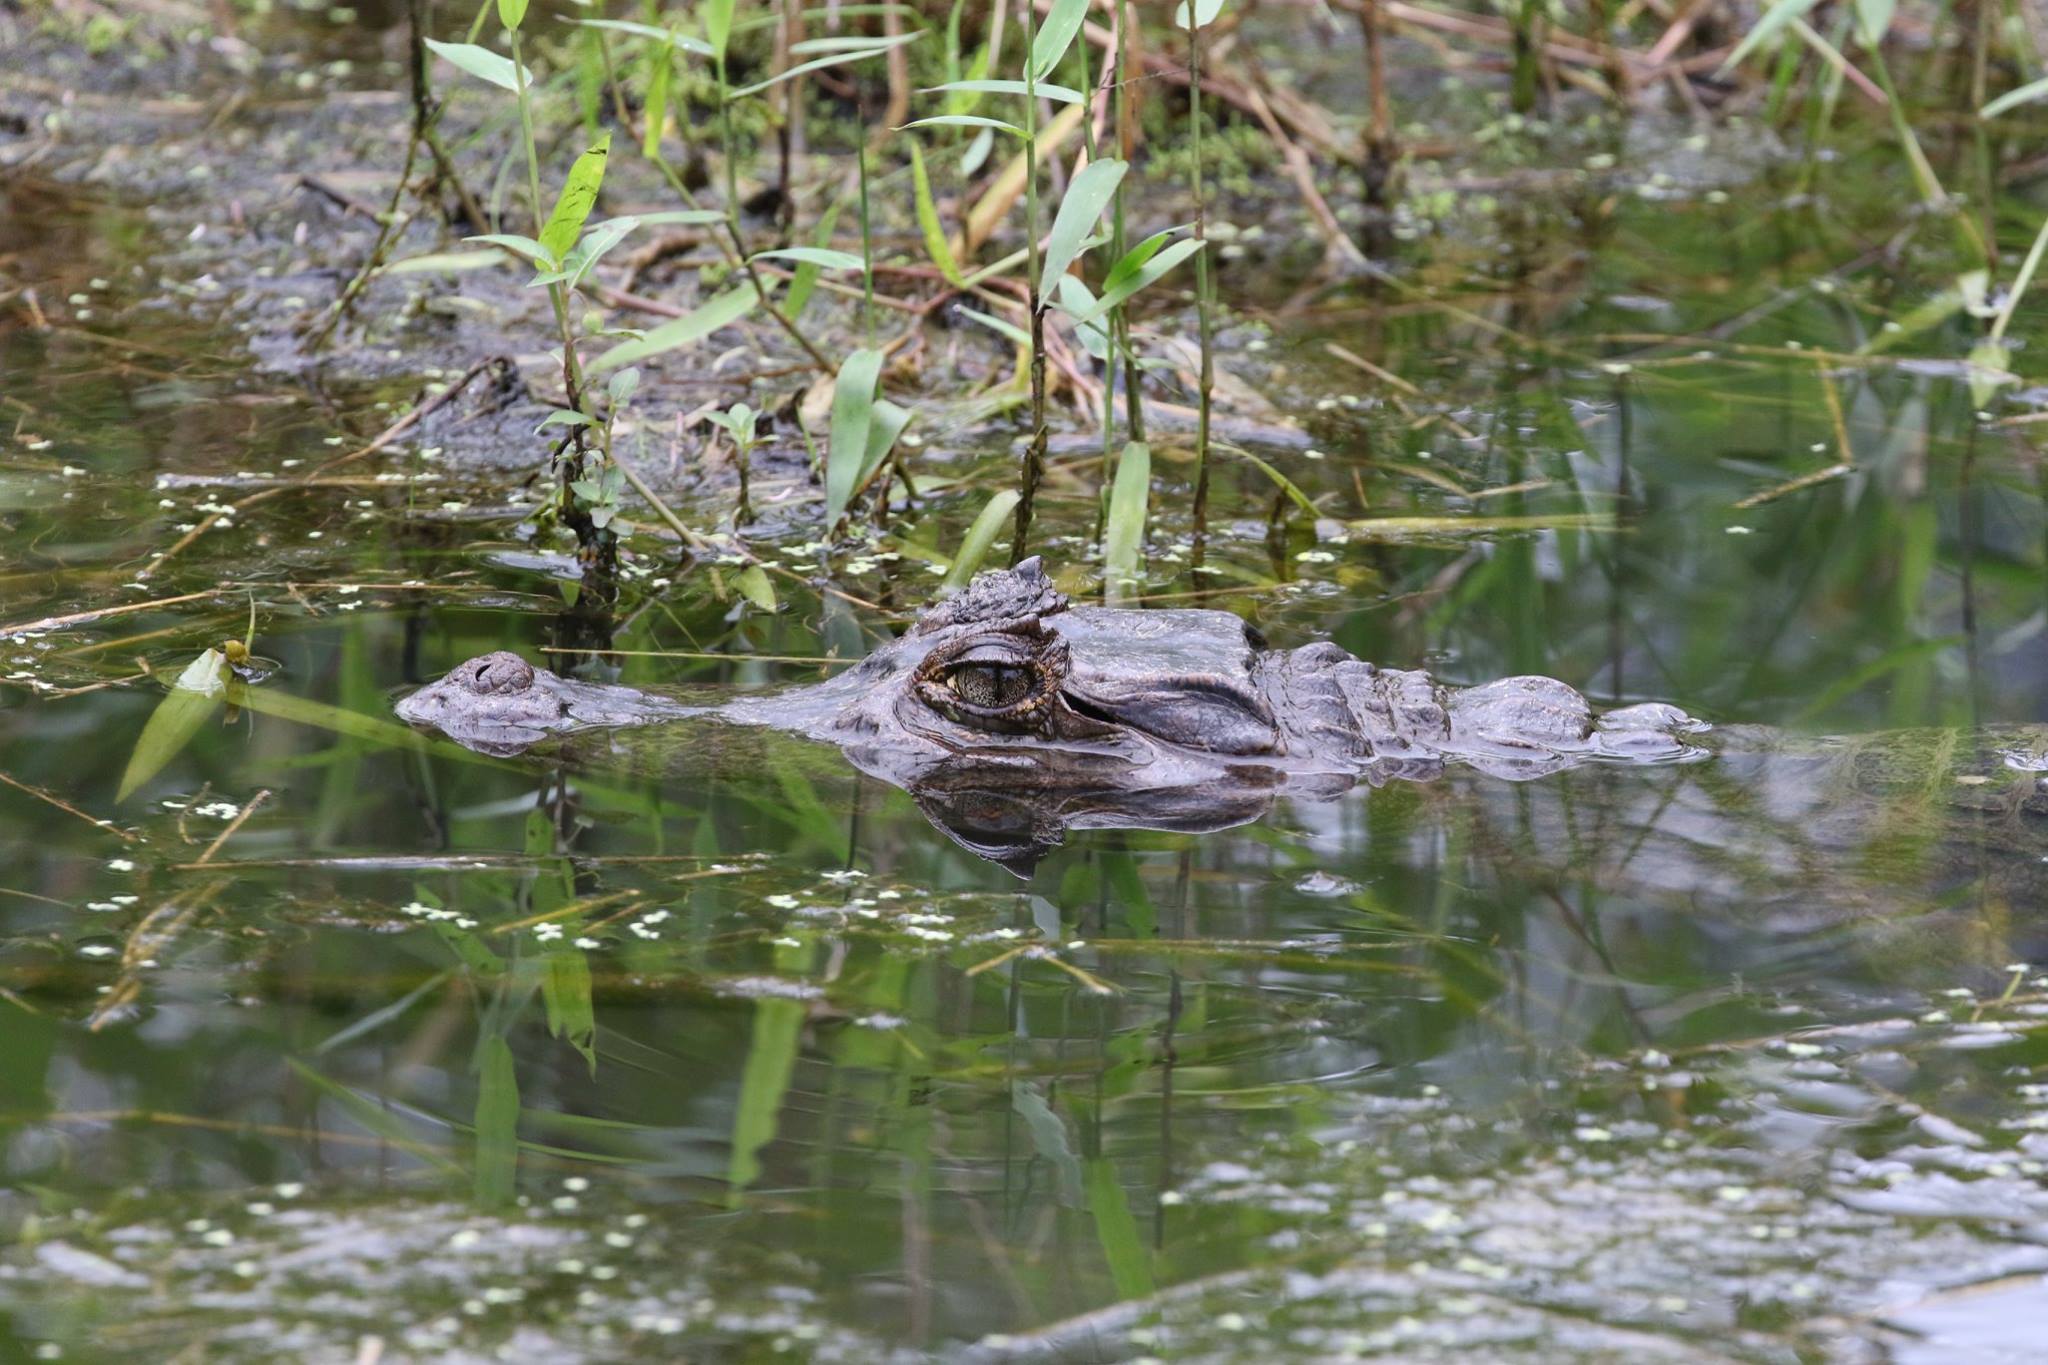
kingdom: Animalia
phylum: Chordata
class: Crocodylia
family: Alligatoridae
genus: Caiman
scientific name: Caiman crocodilus
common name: Common caiman
